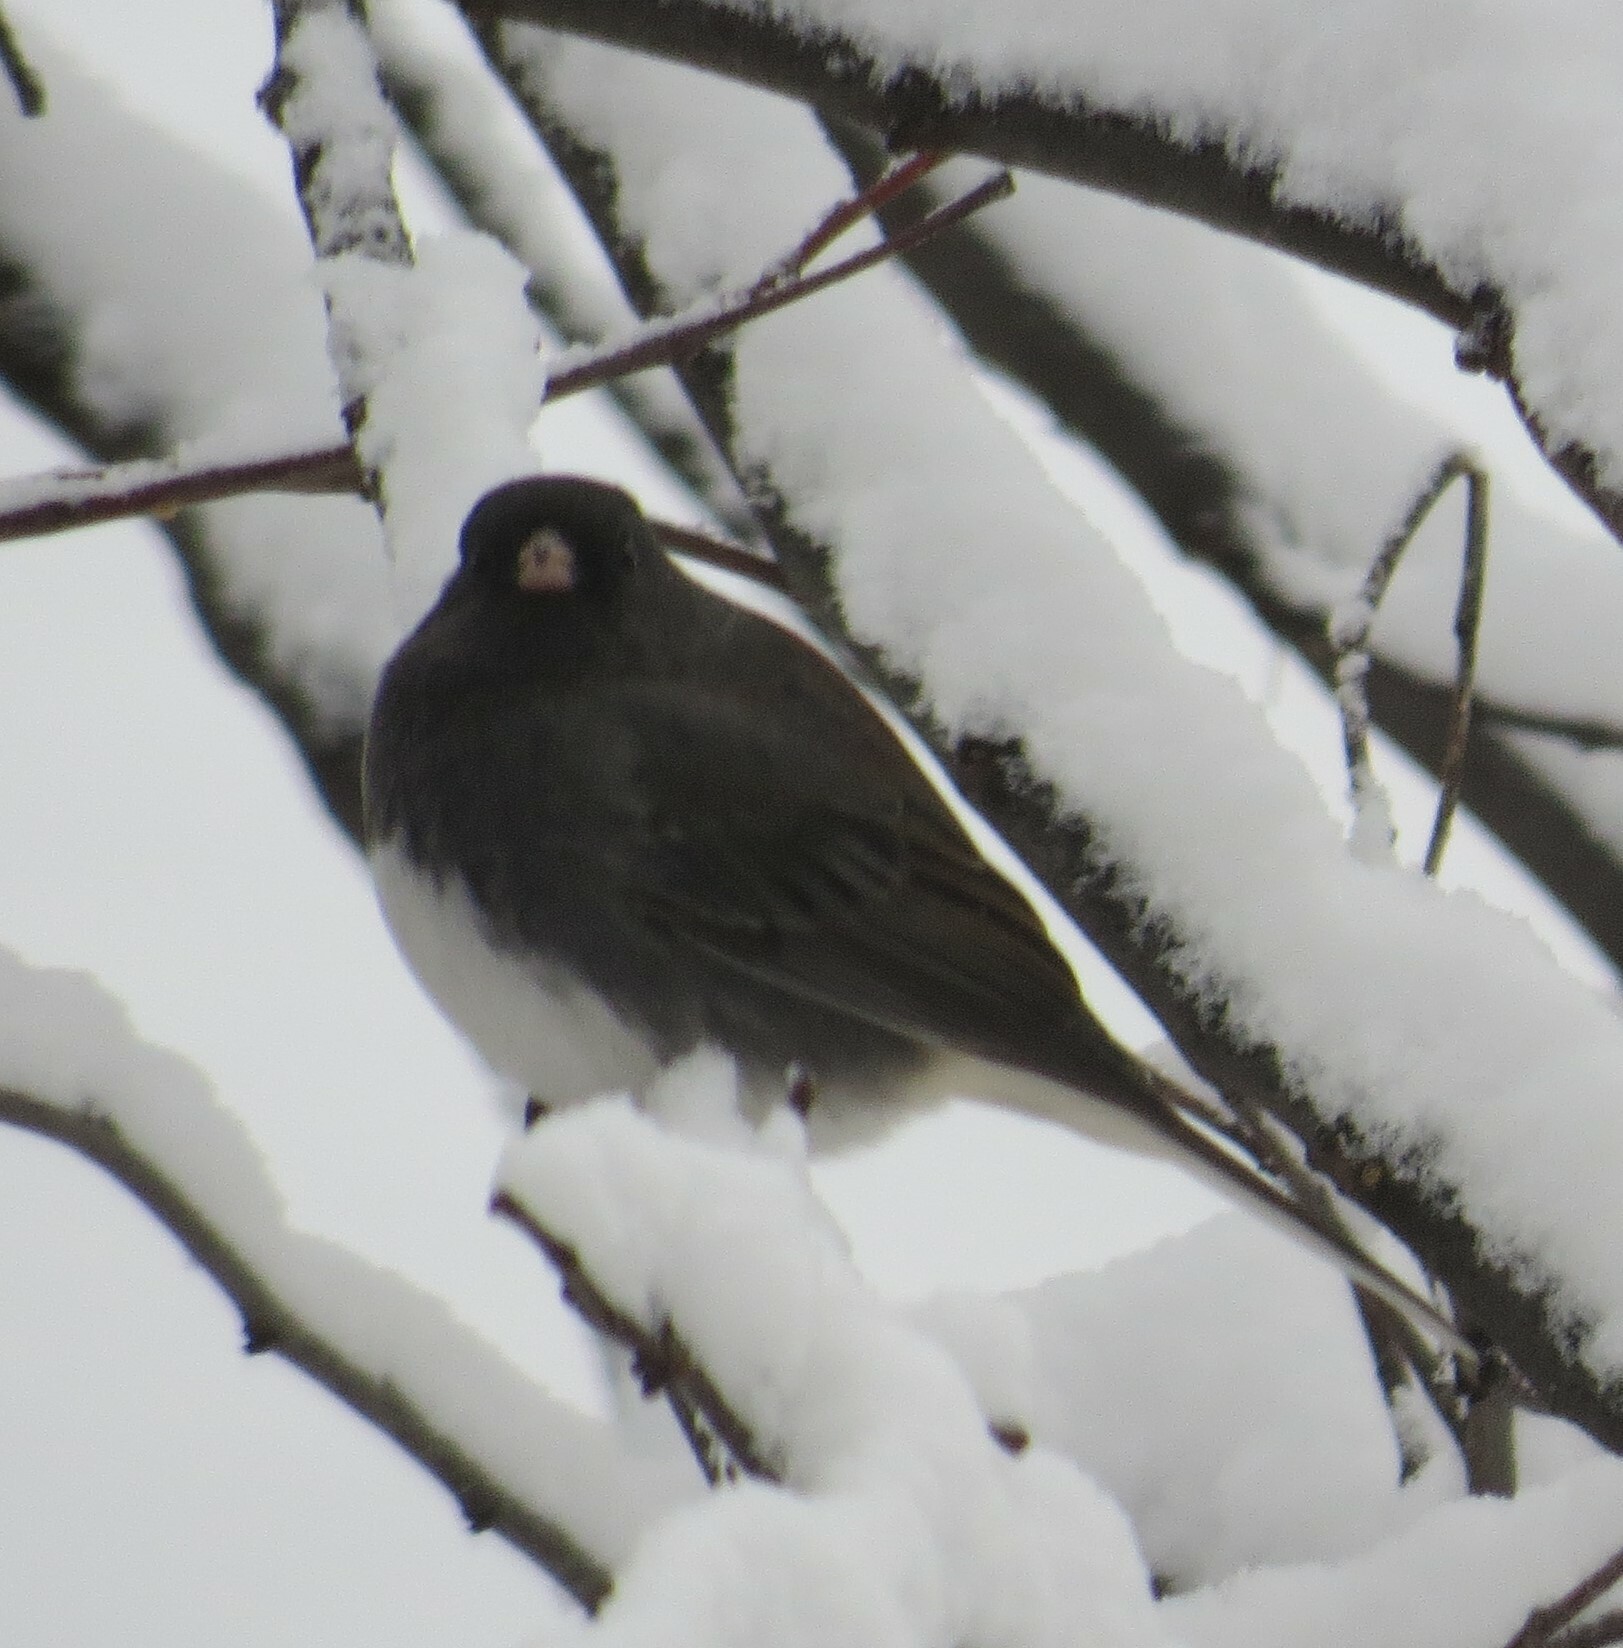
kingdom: Animalia
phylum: Chordata
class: Aves
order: Passeriformes
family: Passerellidae
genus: Junco
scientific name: Junco hyemalis
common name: Dark-eyed junco
